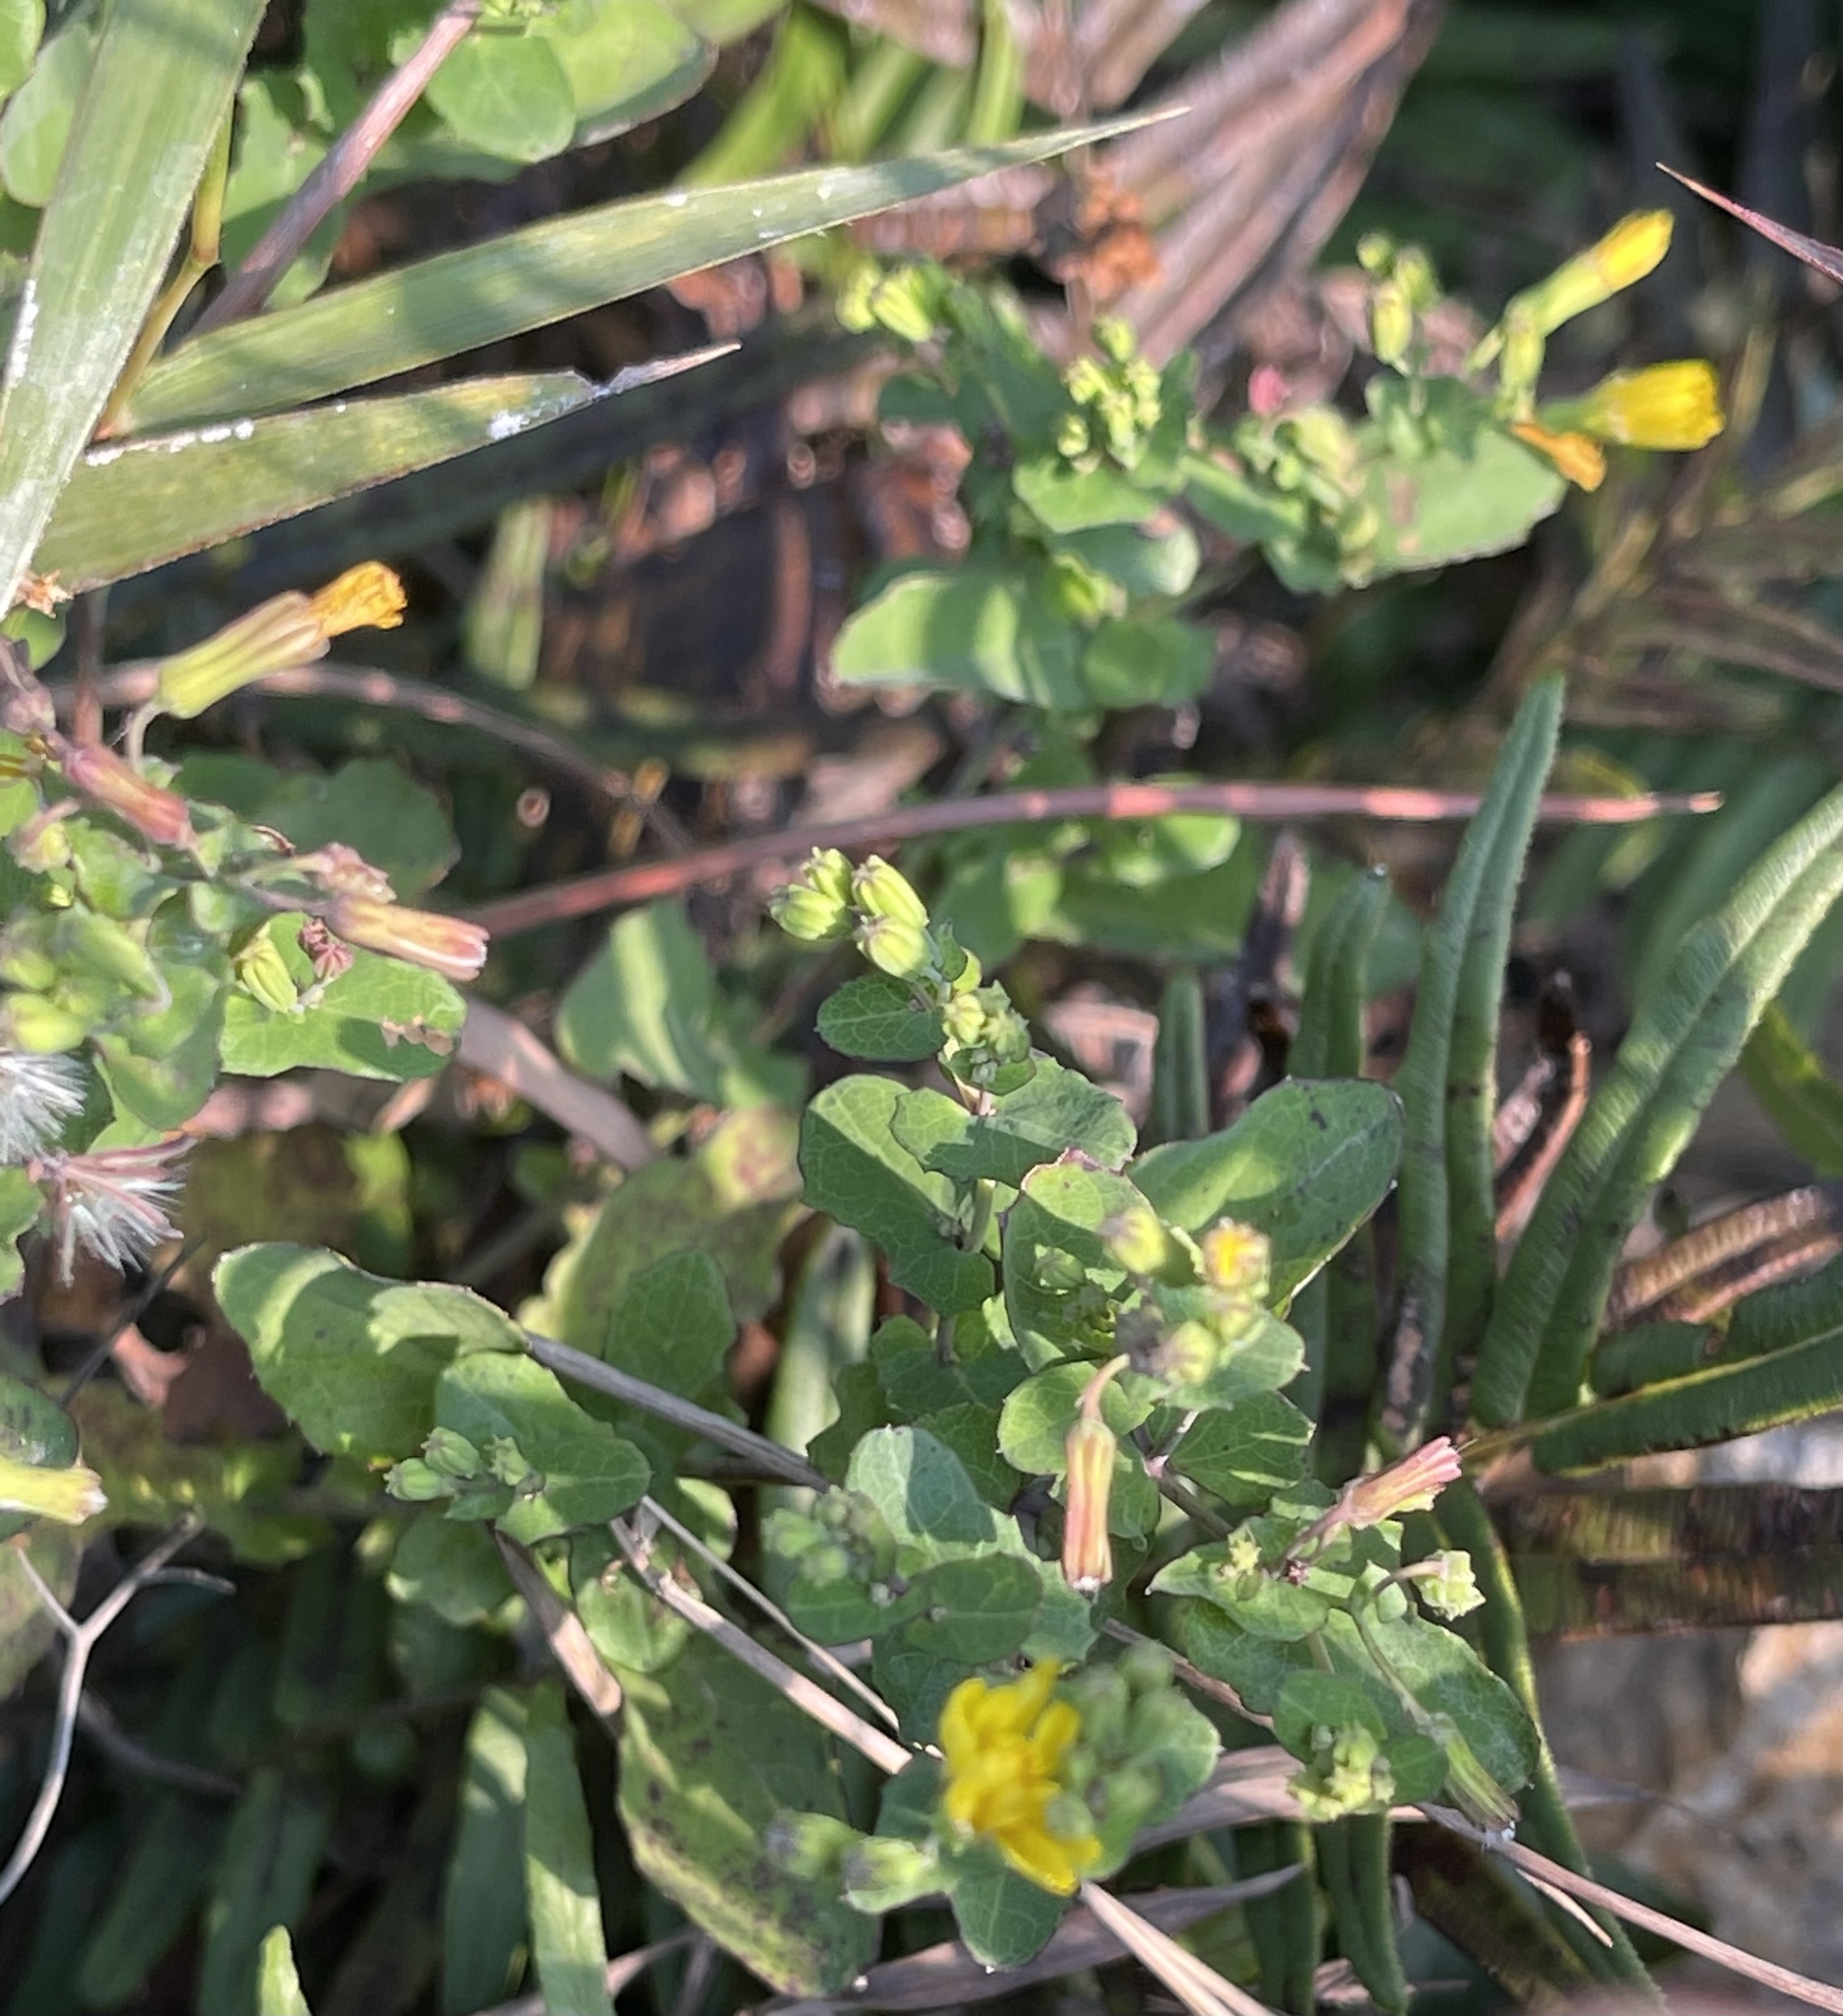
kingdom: Plantae
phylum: Tracheophyta
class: Magnoliopsida
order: Asterales
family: Asteraceae
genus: Crepidiastrum
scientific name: Crepidiastrum denticulatum
